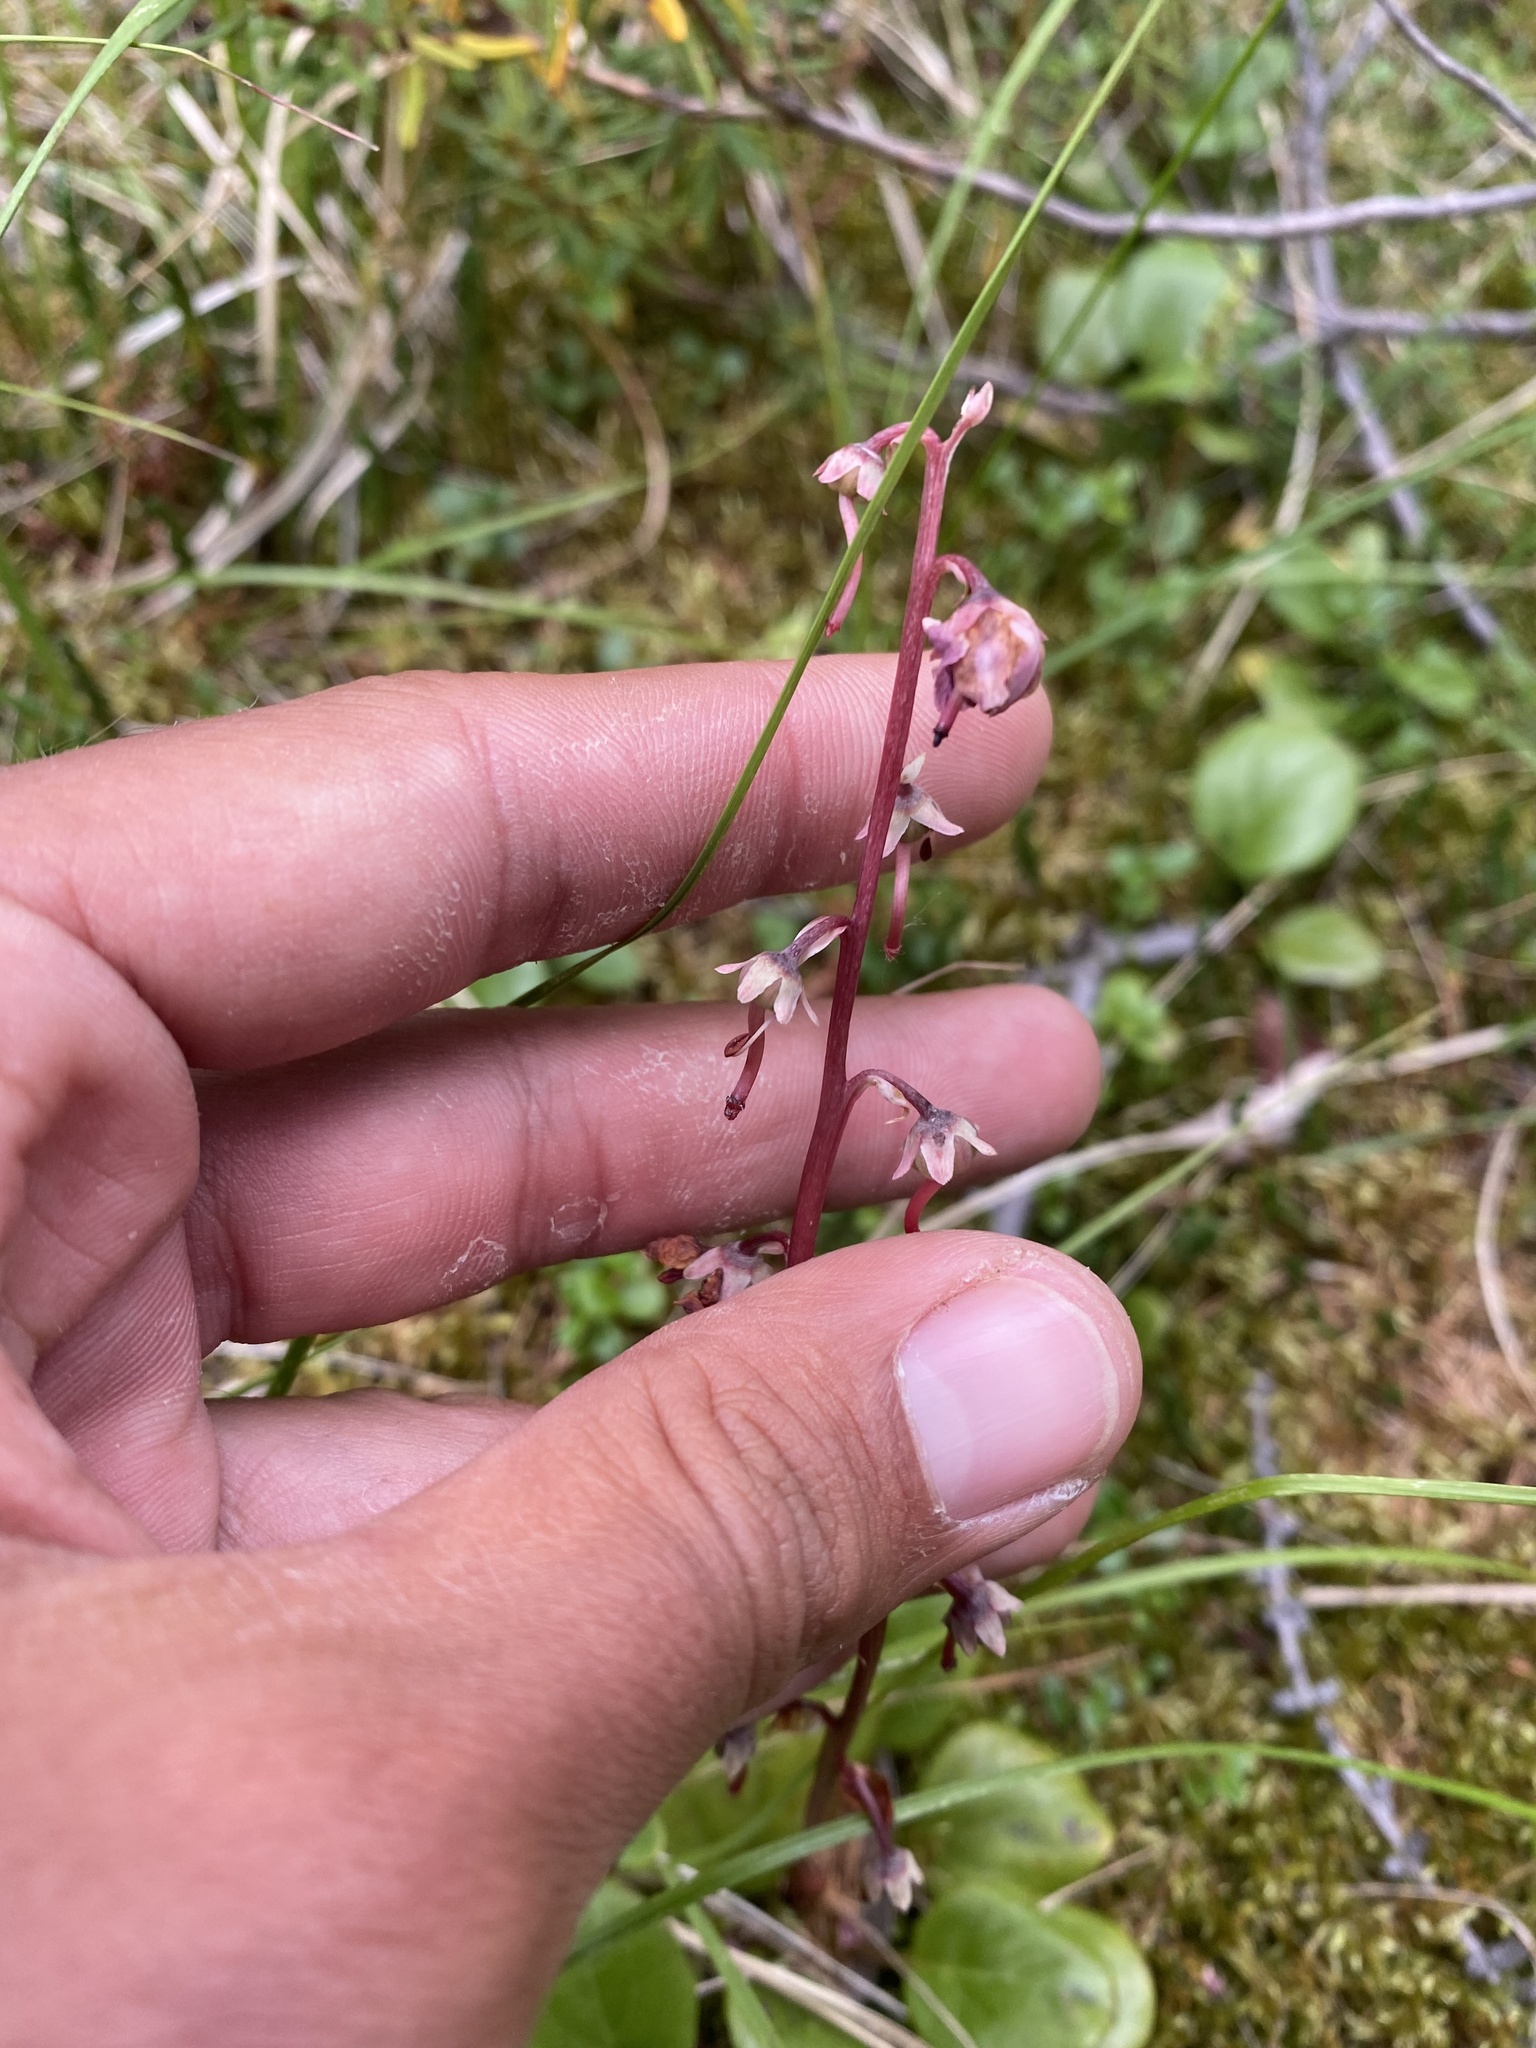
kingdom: Plantae
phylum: Tracheophyta
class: Magnoliopsida
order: Ericales
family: Ericaceae
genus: Pyrola
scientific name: Pyrola asarifolia
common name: Bog wintergreen
